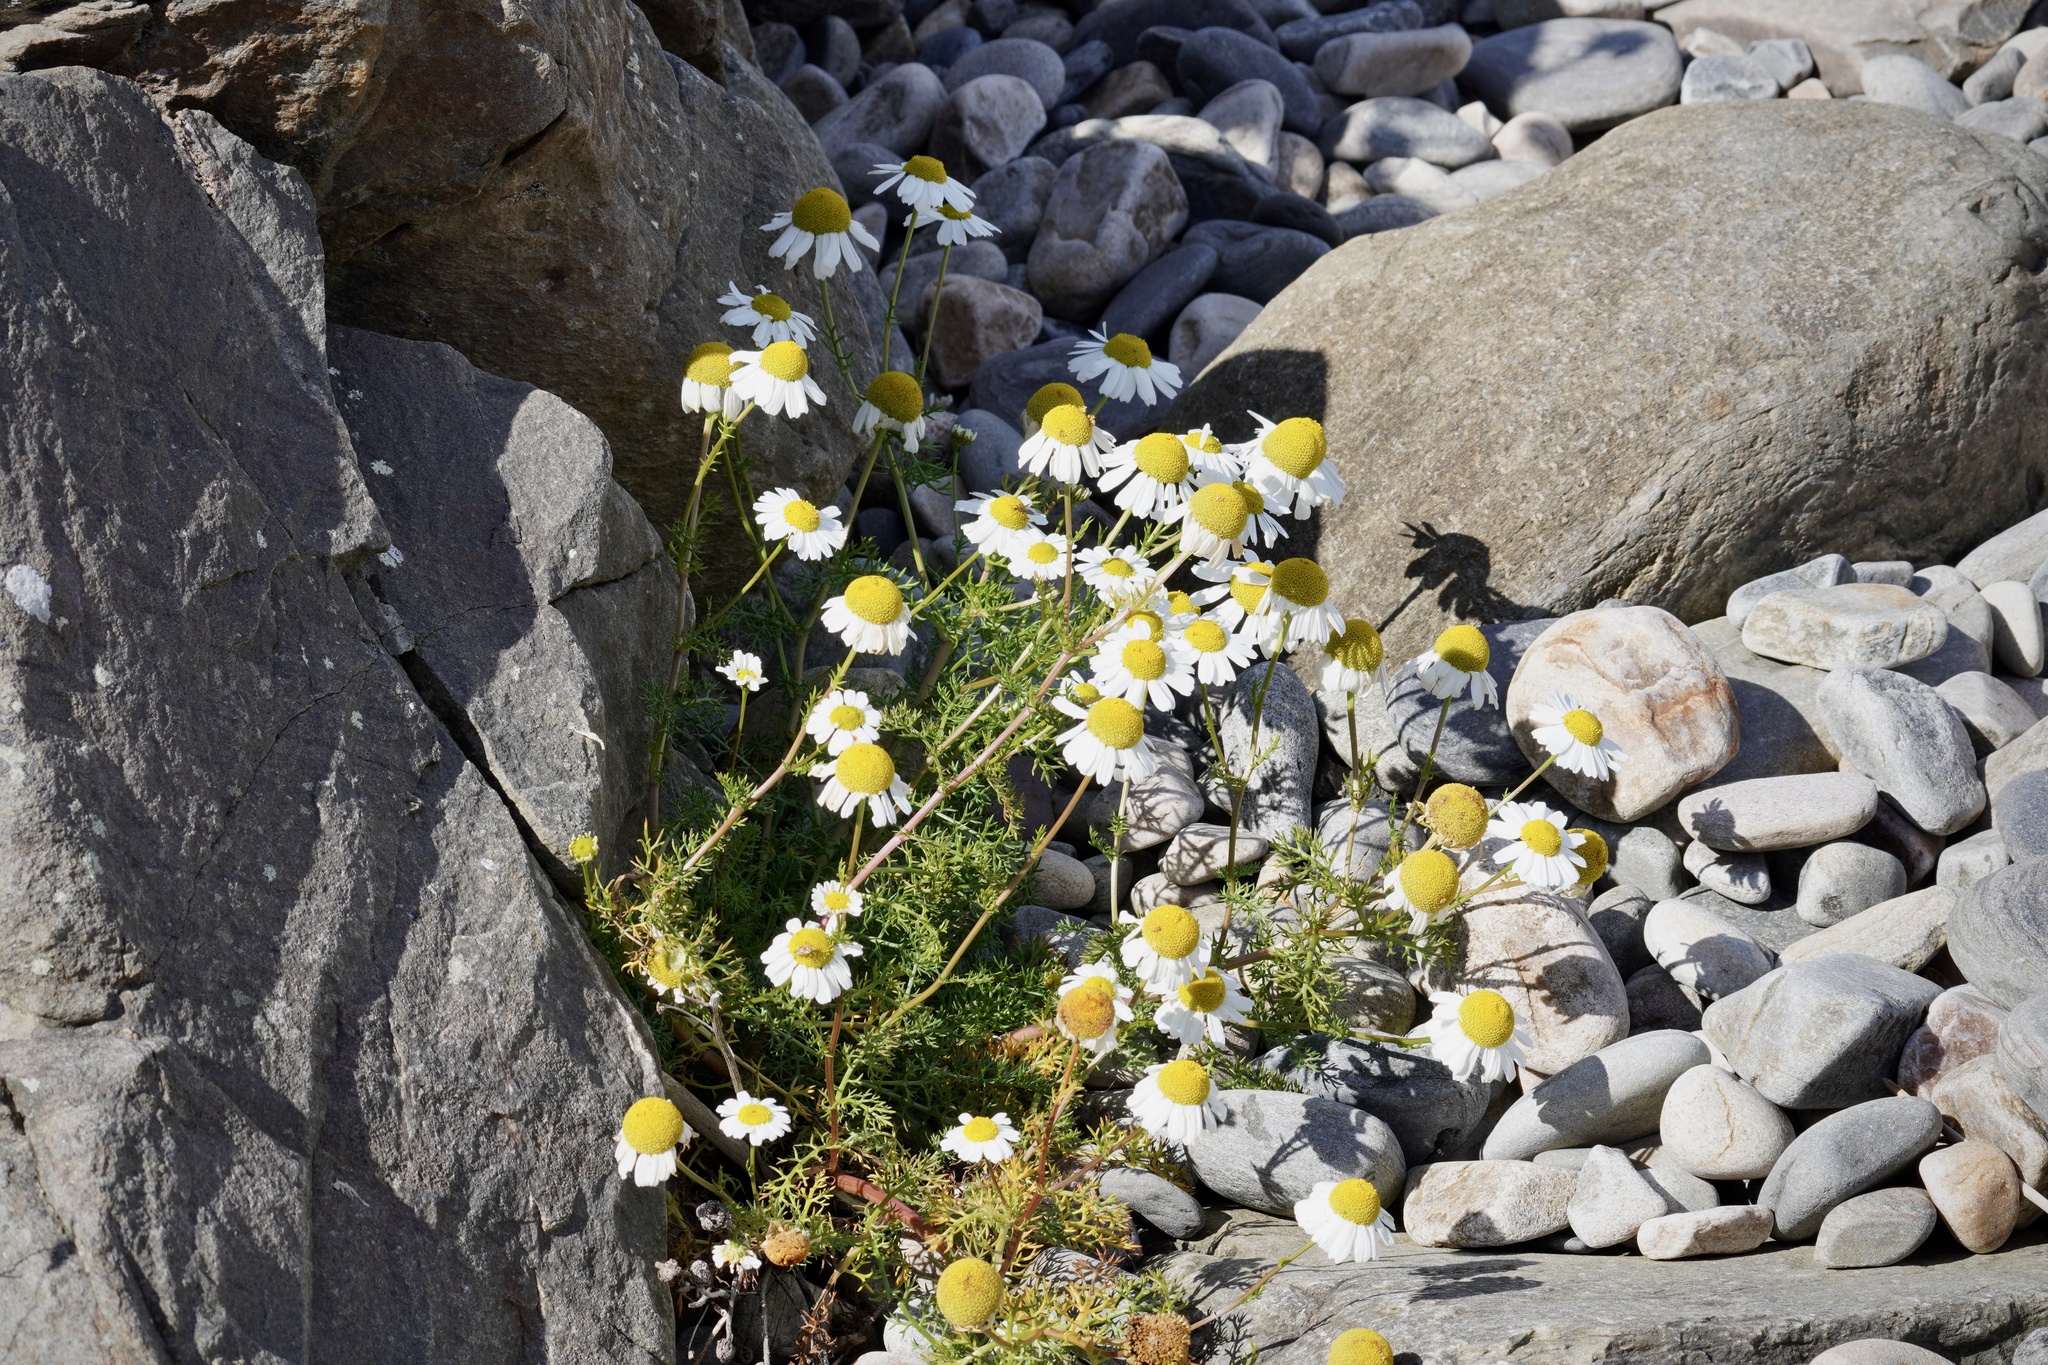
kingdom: Plantae
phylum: Tracheophyta
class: Magnoliopsida
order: Asterales
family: Asteraceae
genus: Tripleurospermum
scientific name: Tripleurospermum maritimum
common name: Sea mayweed
